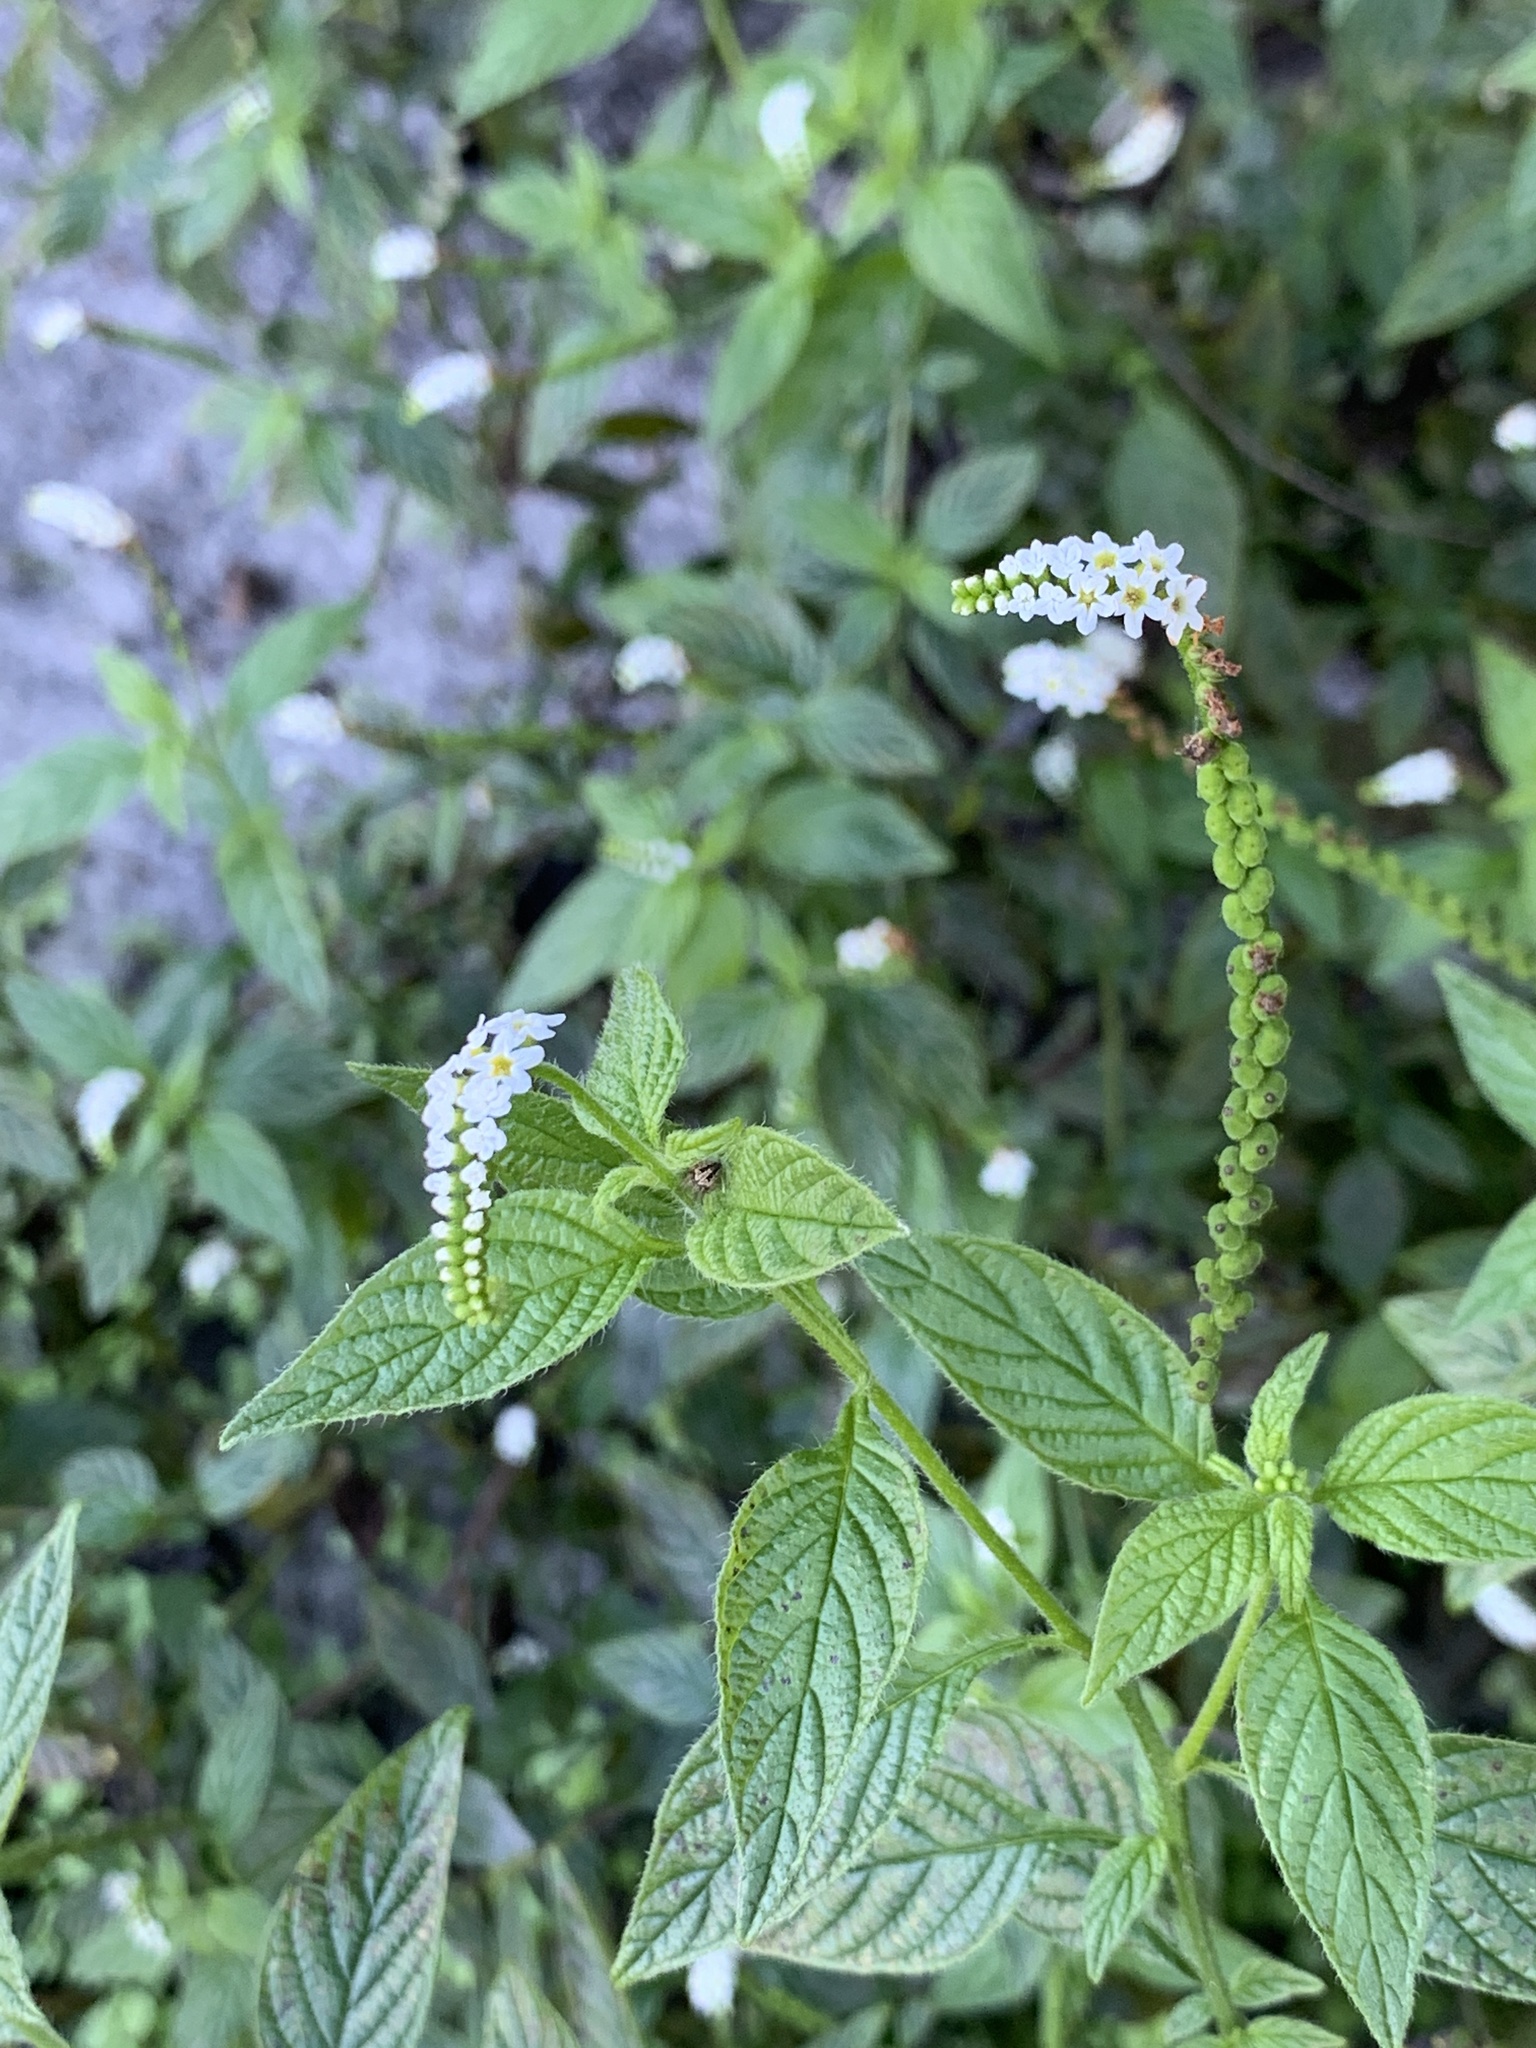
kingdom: Plantae
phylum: Tracheophyta
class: Magnoliopsida
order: Boraginales
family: Heliotropiaceae
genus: Heliotropium
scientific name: Heliotropium angiospermum
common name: Eye bright
